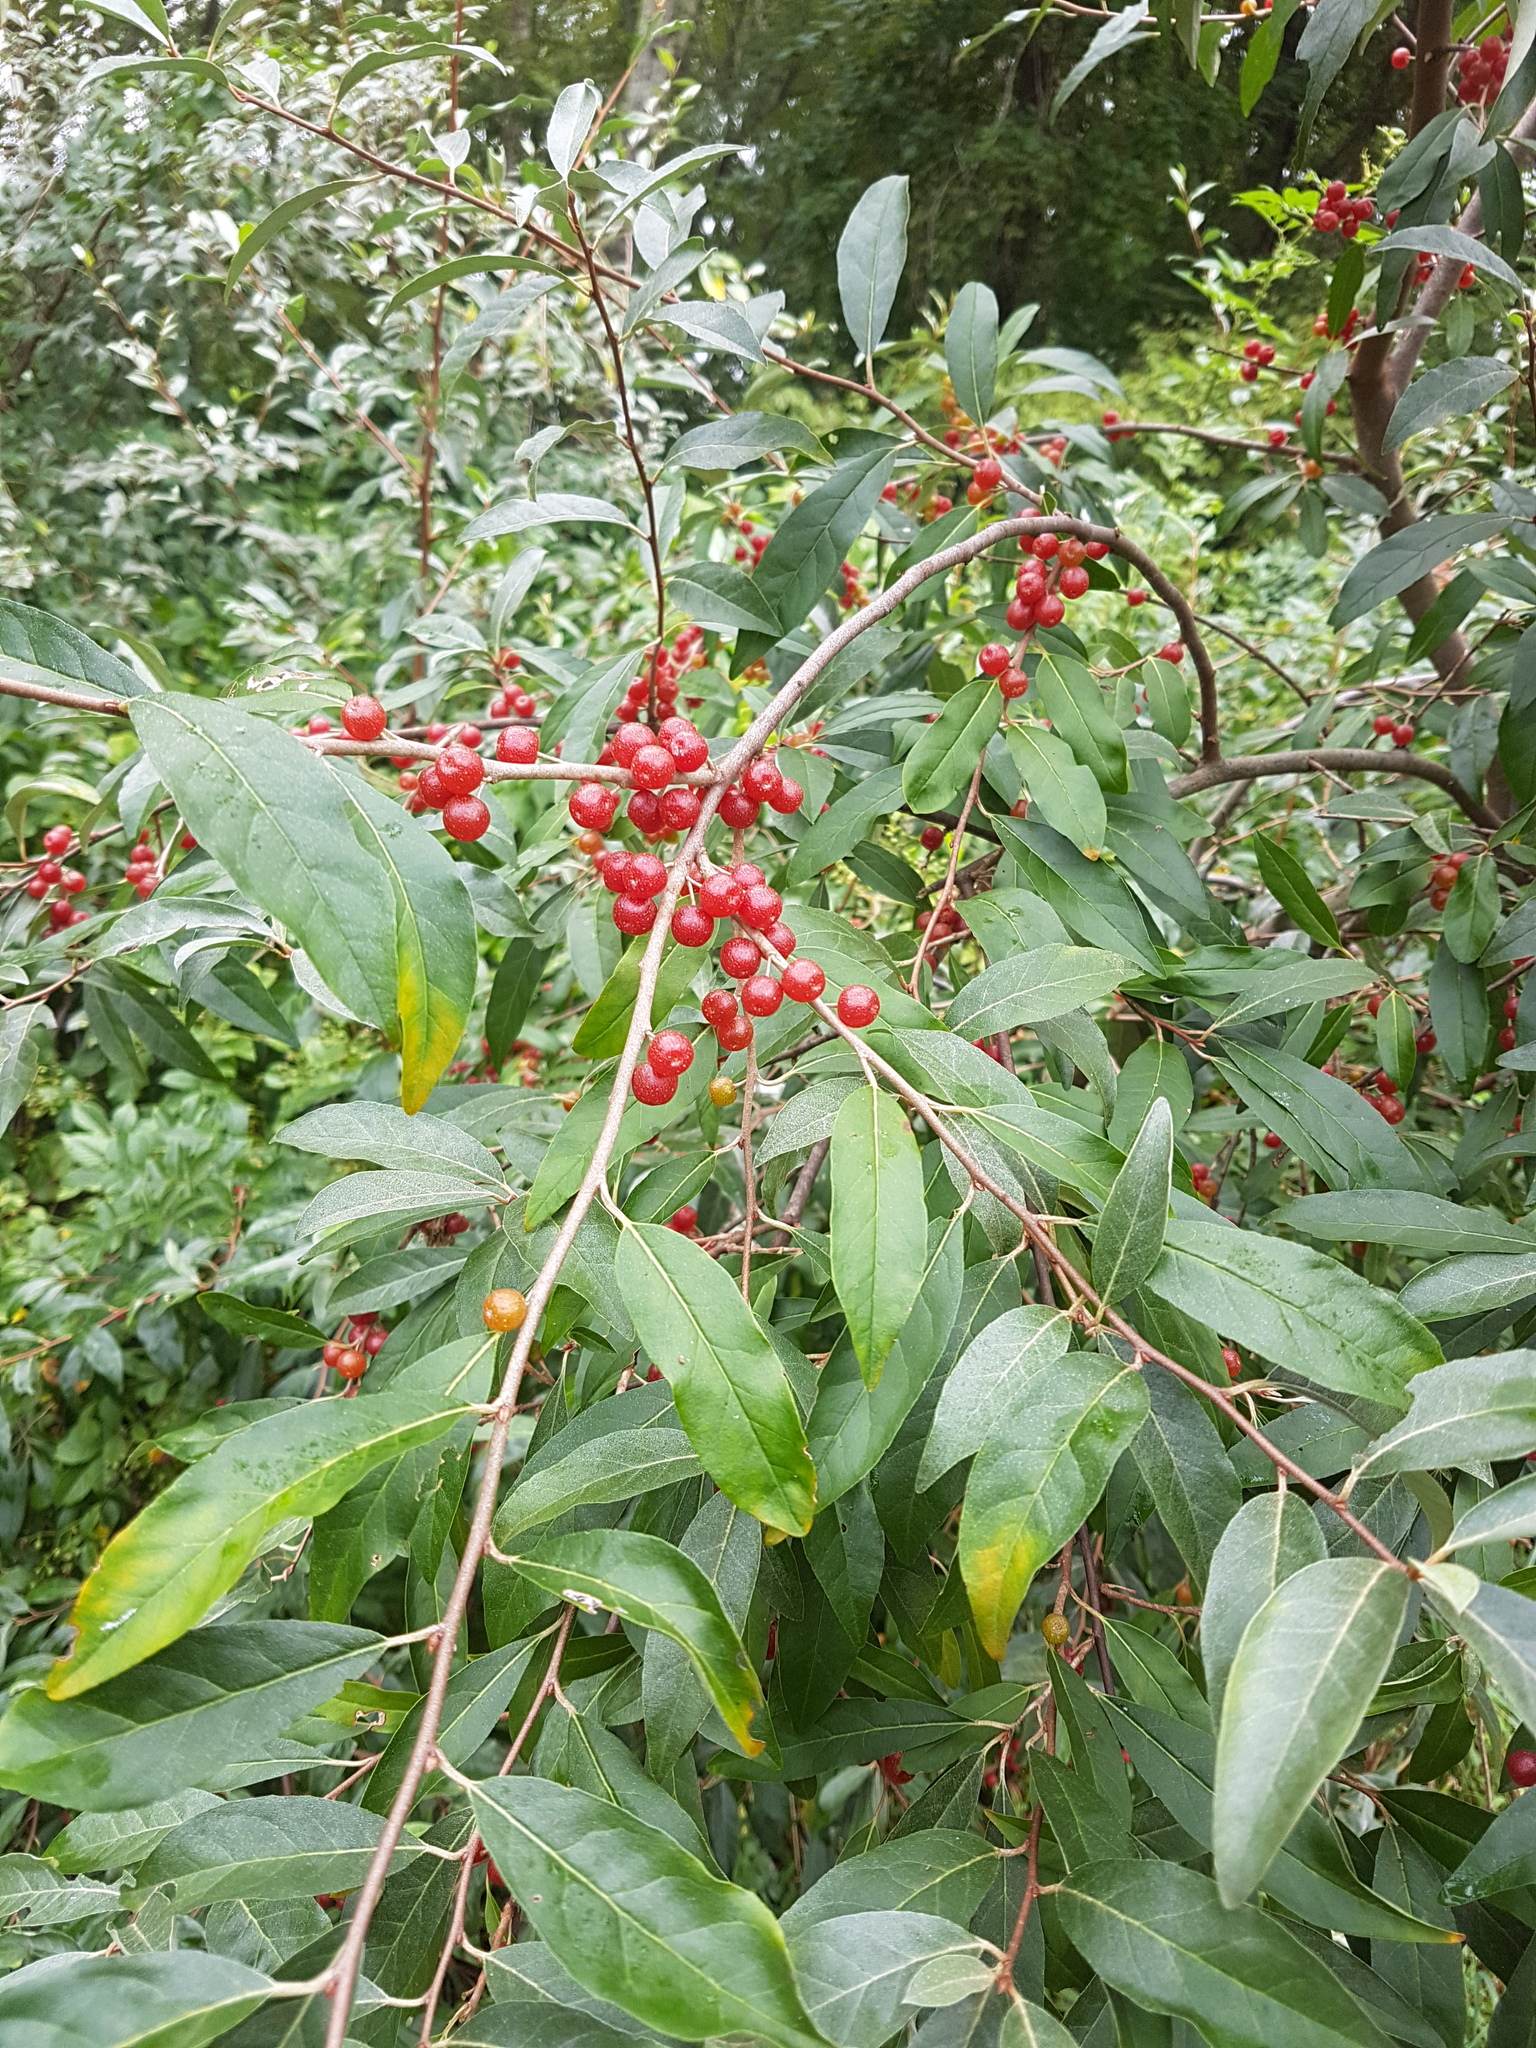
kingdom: Plantae
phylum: Tracheophyta
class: Magnoliopsida
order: Rosales
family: Elaeagnaceae
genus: Elaeagnus
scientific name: Elaeagnus umbellata
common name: Autumn olive
